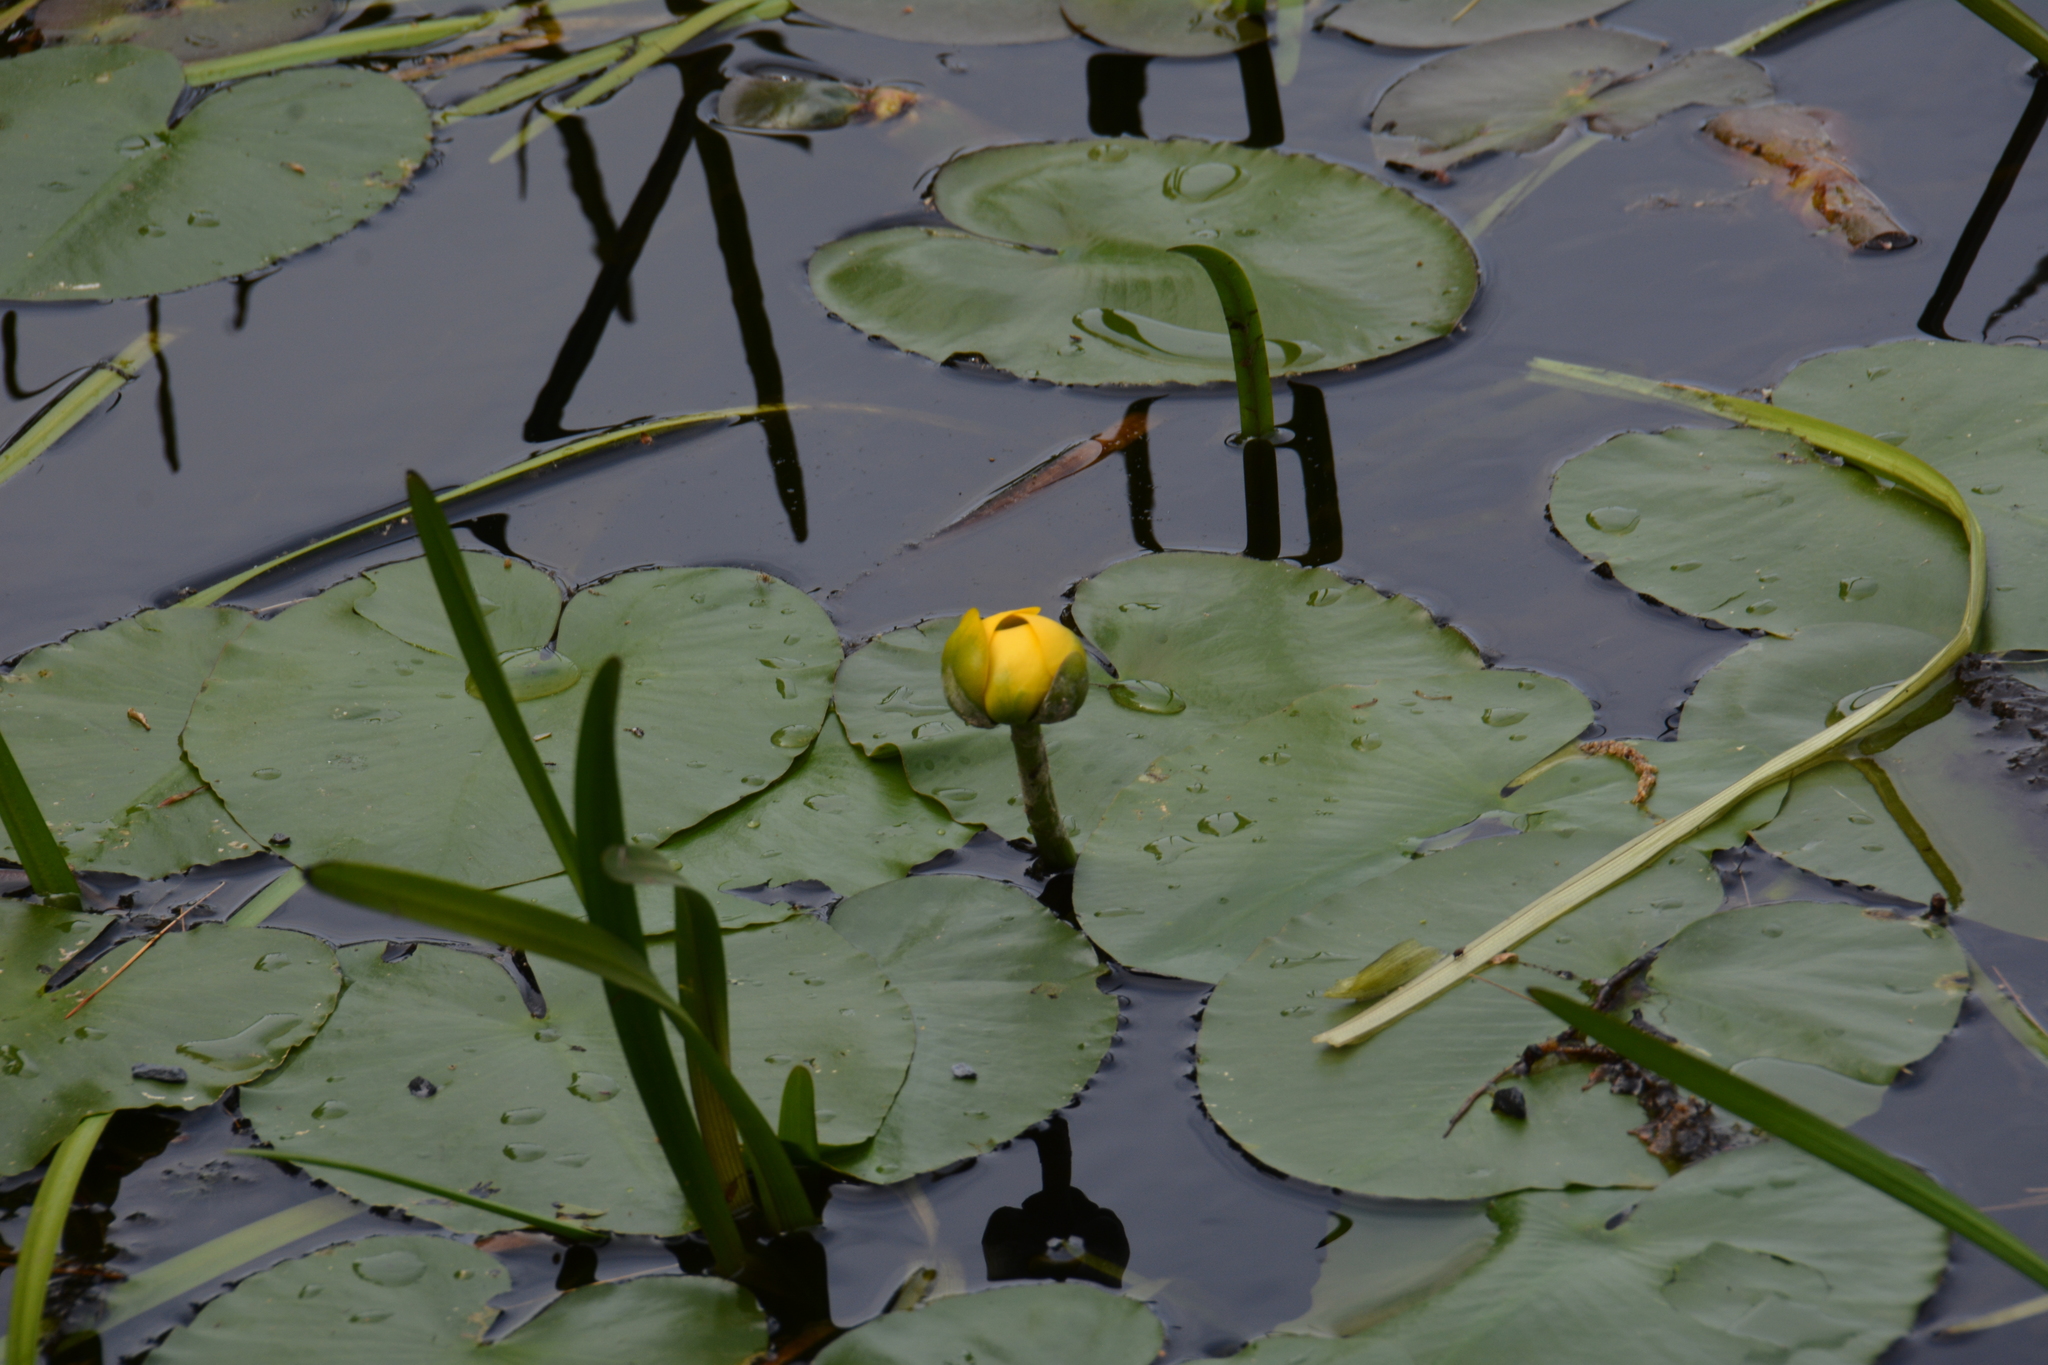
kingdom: Plantae
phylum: Tracheophyta
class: Magnoliopsida
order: Nymphaeales
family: Nymphaeaceae
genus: Nuphar
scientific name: Nuphar variegata
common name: Beaver-root
